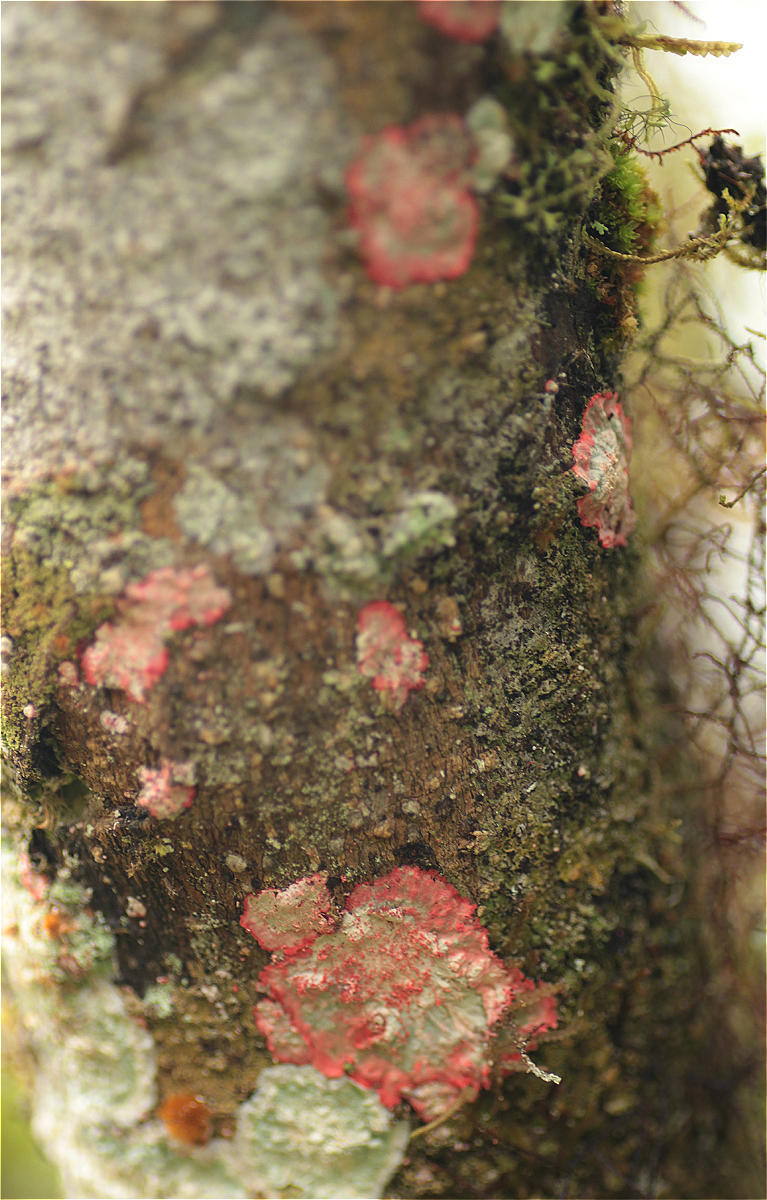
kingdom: Fungi
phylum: Ascomycota
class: Arthoniomycetes
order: Arthoniales
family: Arthoniaceae
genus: Herpothallon
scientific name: Herpothallon rubrocinctum
